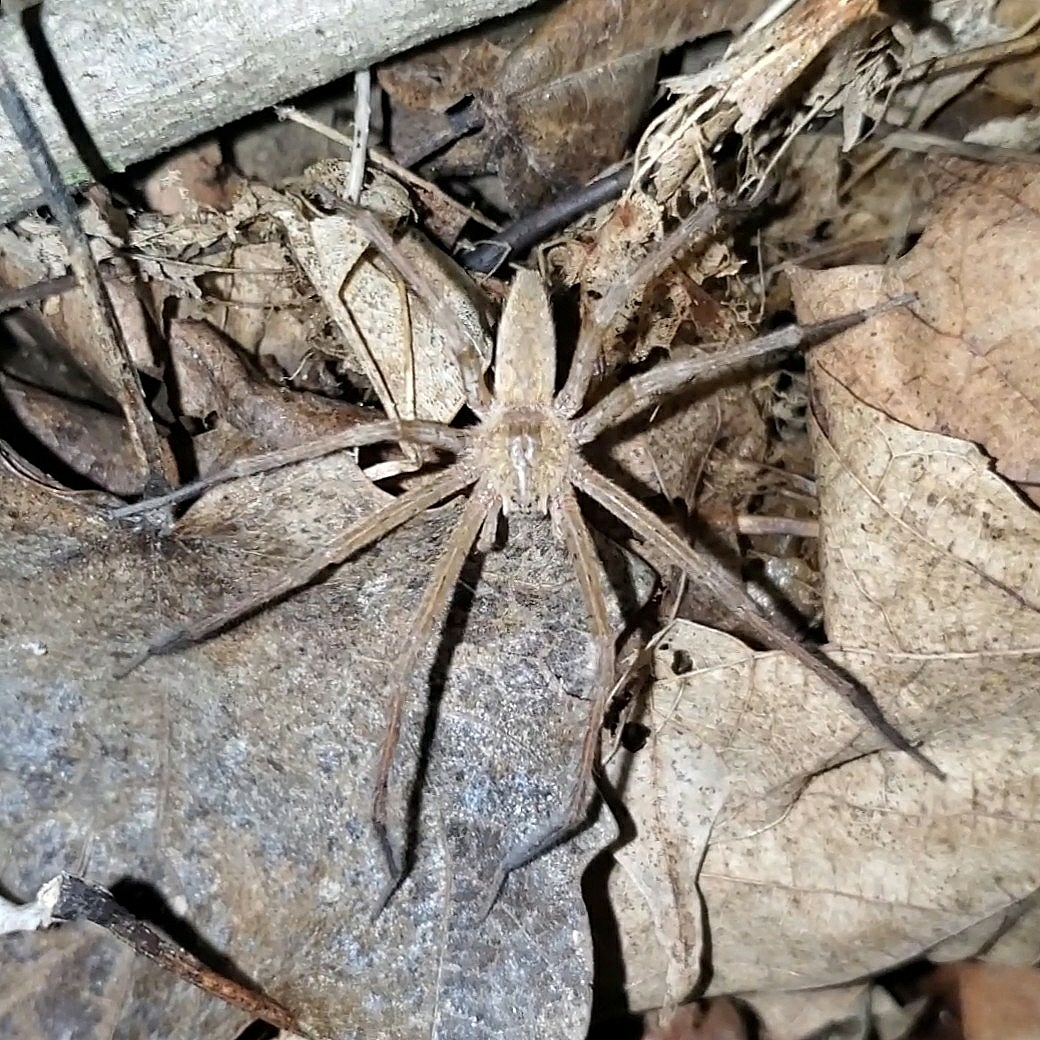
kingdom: Animalia
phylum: Arthropoda
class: Arachnida
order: Araneae
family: Pisauridae
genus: Pisaurina
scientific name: Pisaurina mira
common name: American nursery web spider
